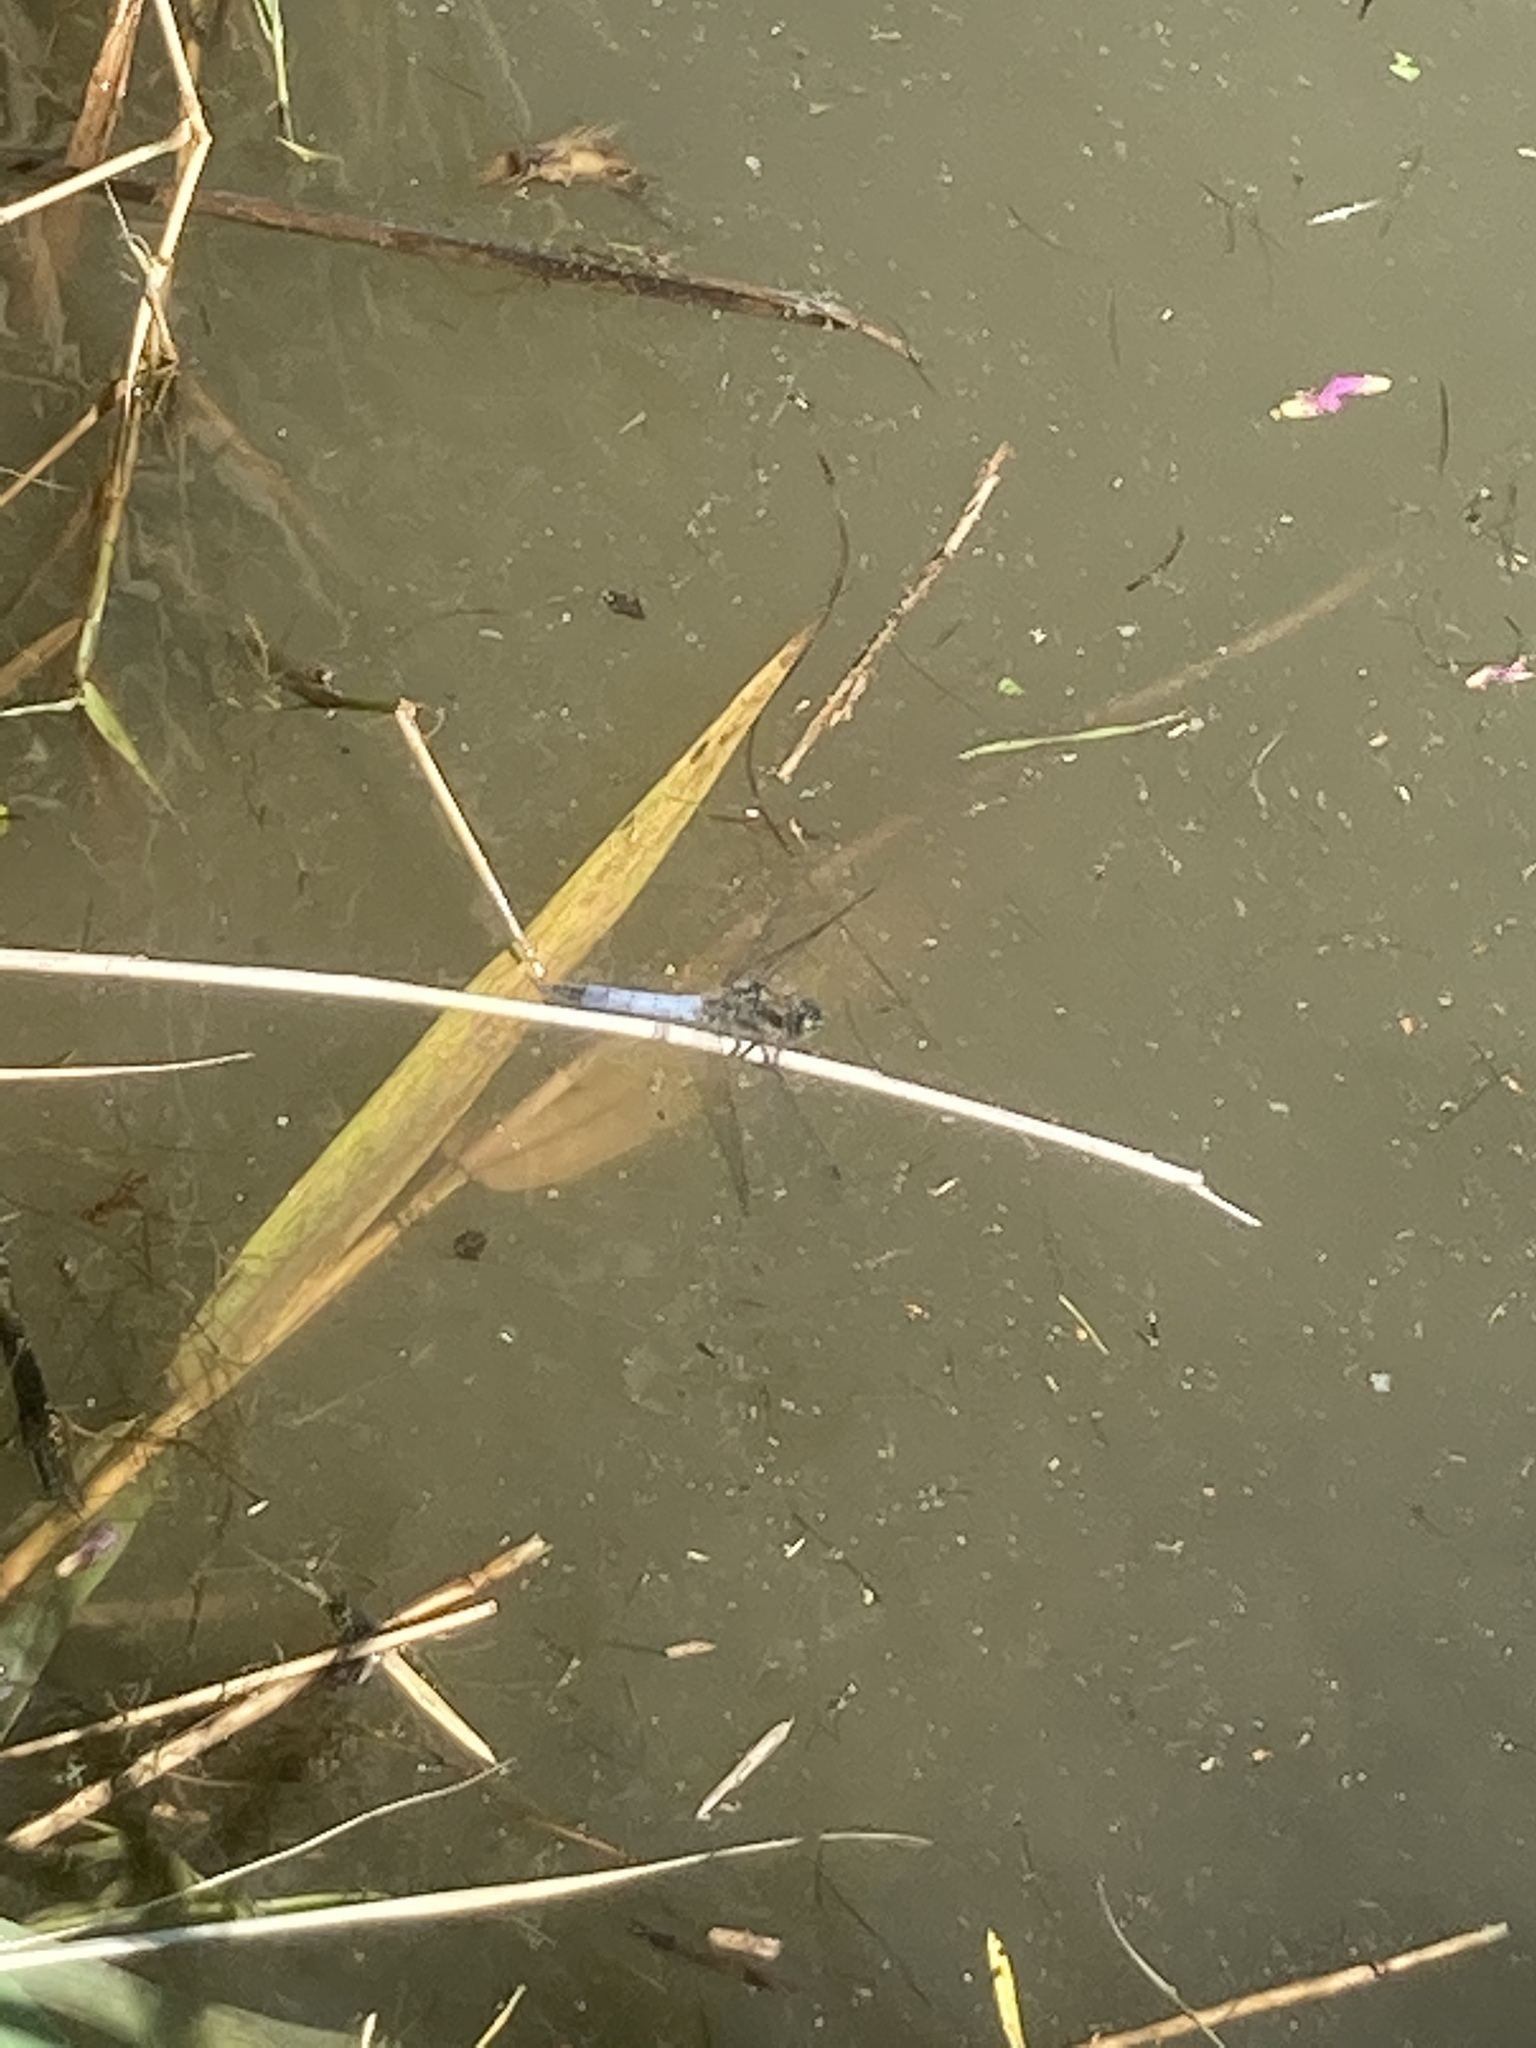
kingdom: Animalia
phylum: Arthropoda
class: Insecta
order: Odonata
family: Libellulidae
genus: Orthetrum
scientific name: Orthetrum cancellatum
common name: Black-tailed skimmer
